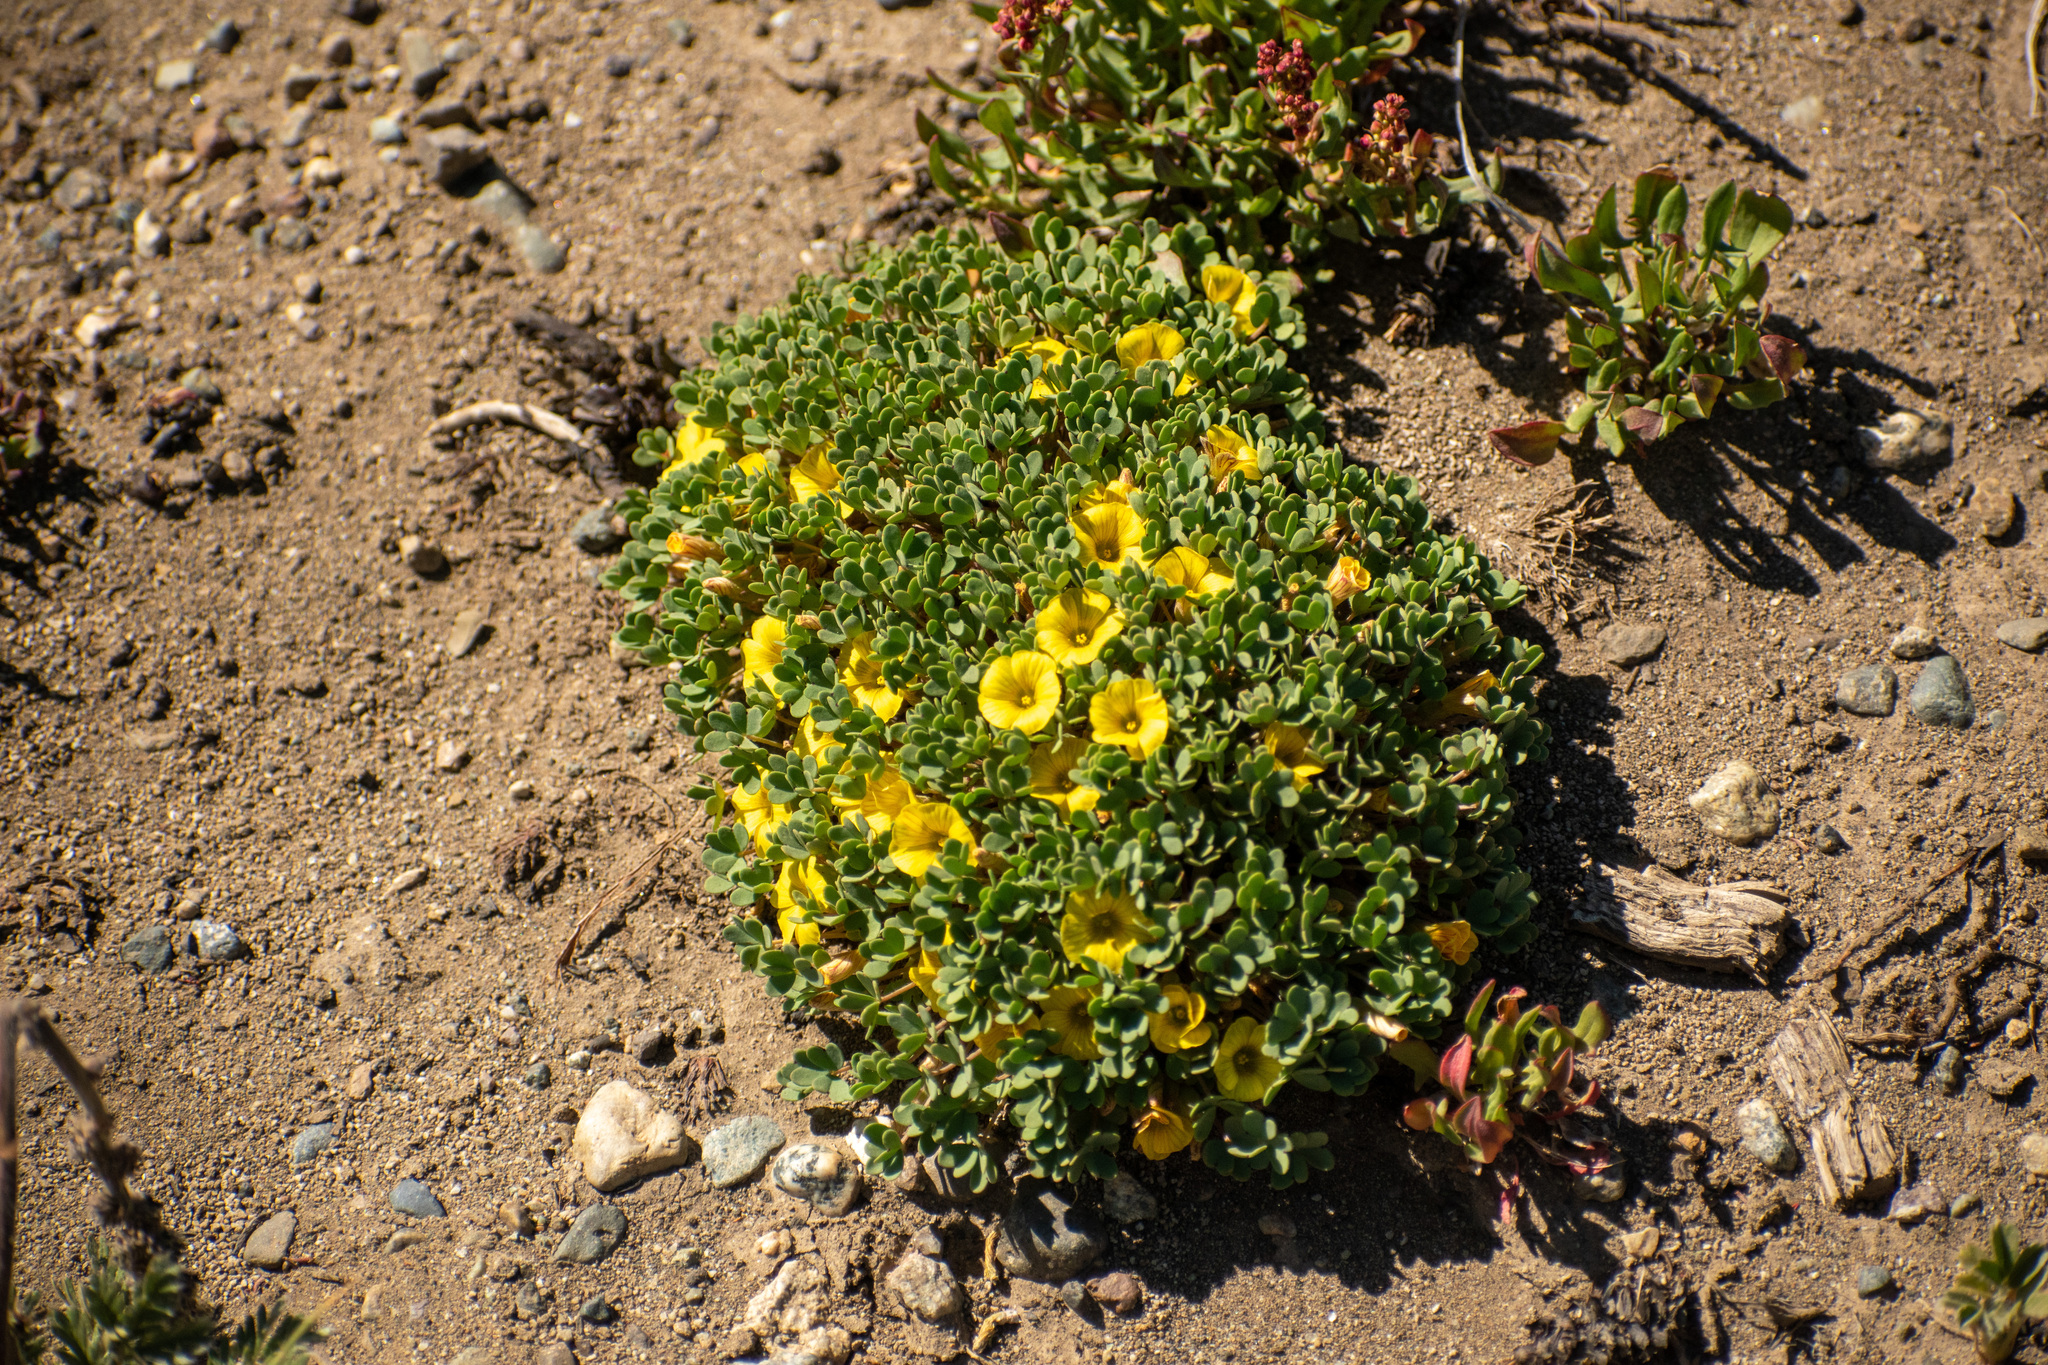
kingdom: Plantae
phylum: Tracheophyta
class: Magnoliopsida
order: Oxalidales
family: Oxalidaceae
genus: Oxalis
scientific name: Oxalis nahuelhuapiensis
